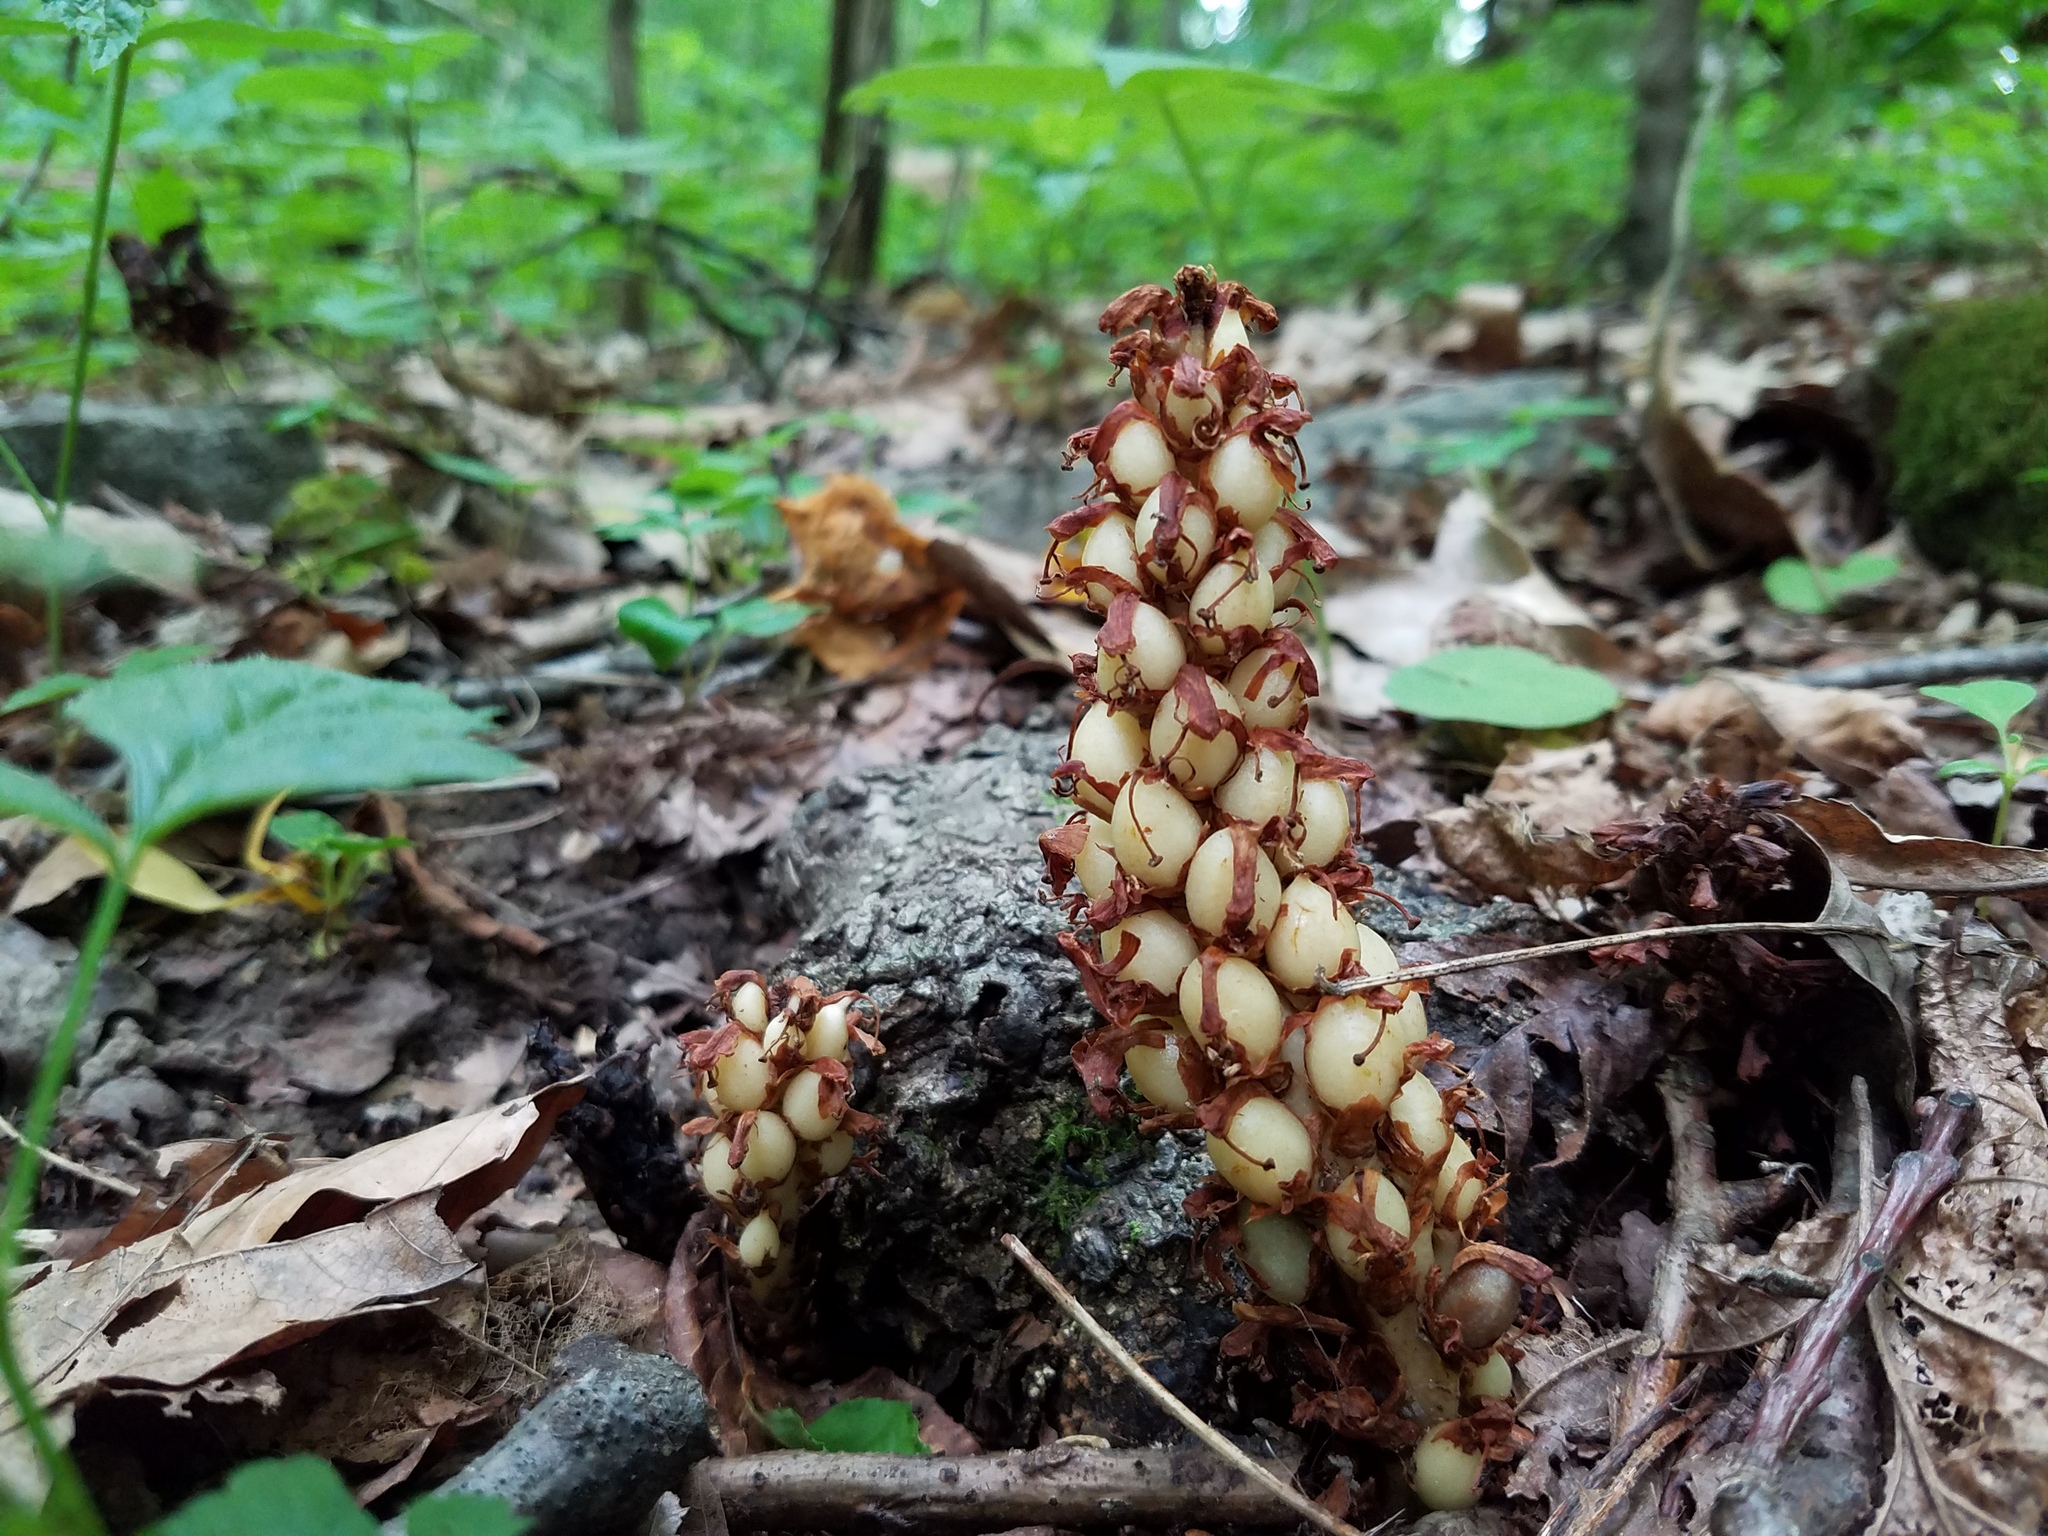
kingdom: Plantae
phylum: Tracheophyta
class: Magnoliopsida
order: Lamiales
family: Orobanchaceae
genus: Conopholis
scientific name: Conopholis americana
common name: American cancer-root
